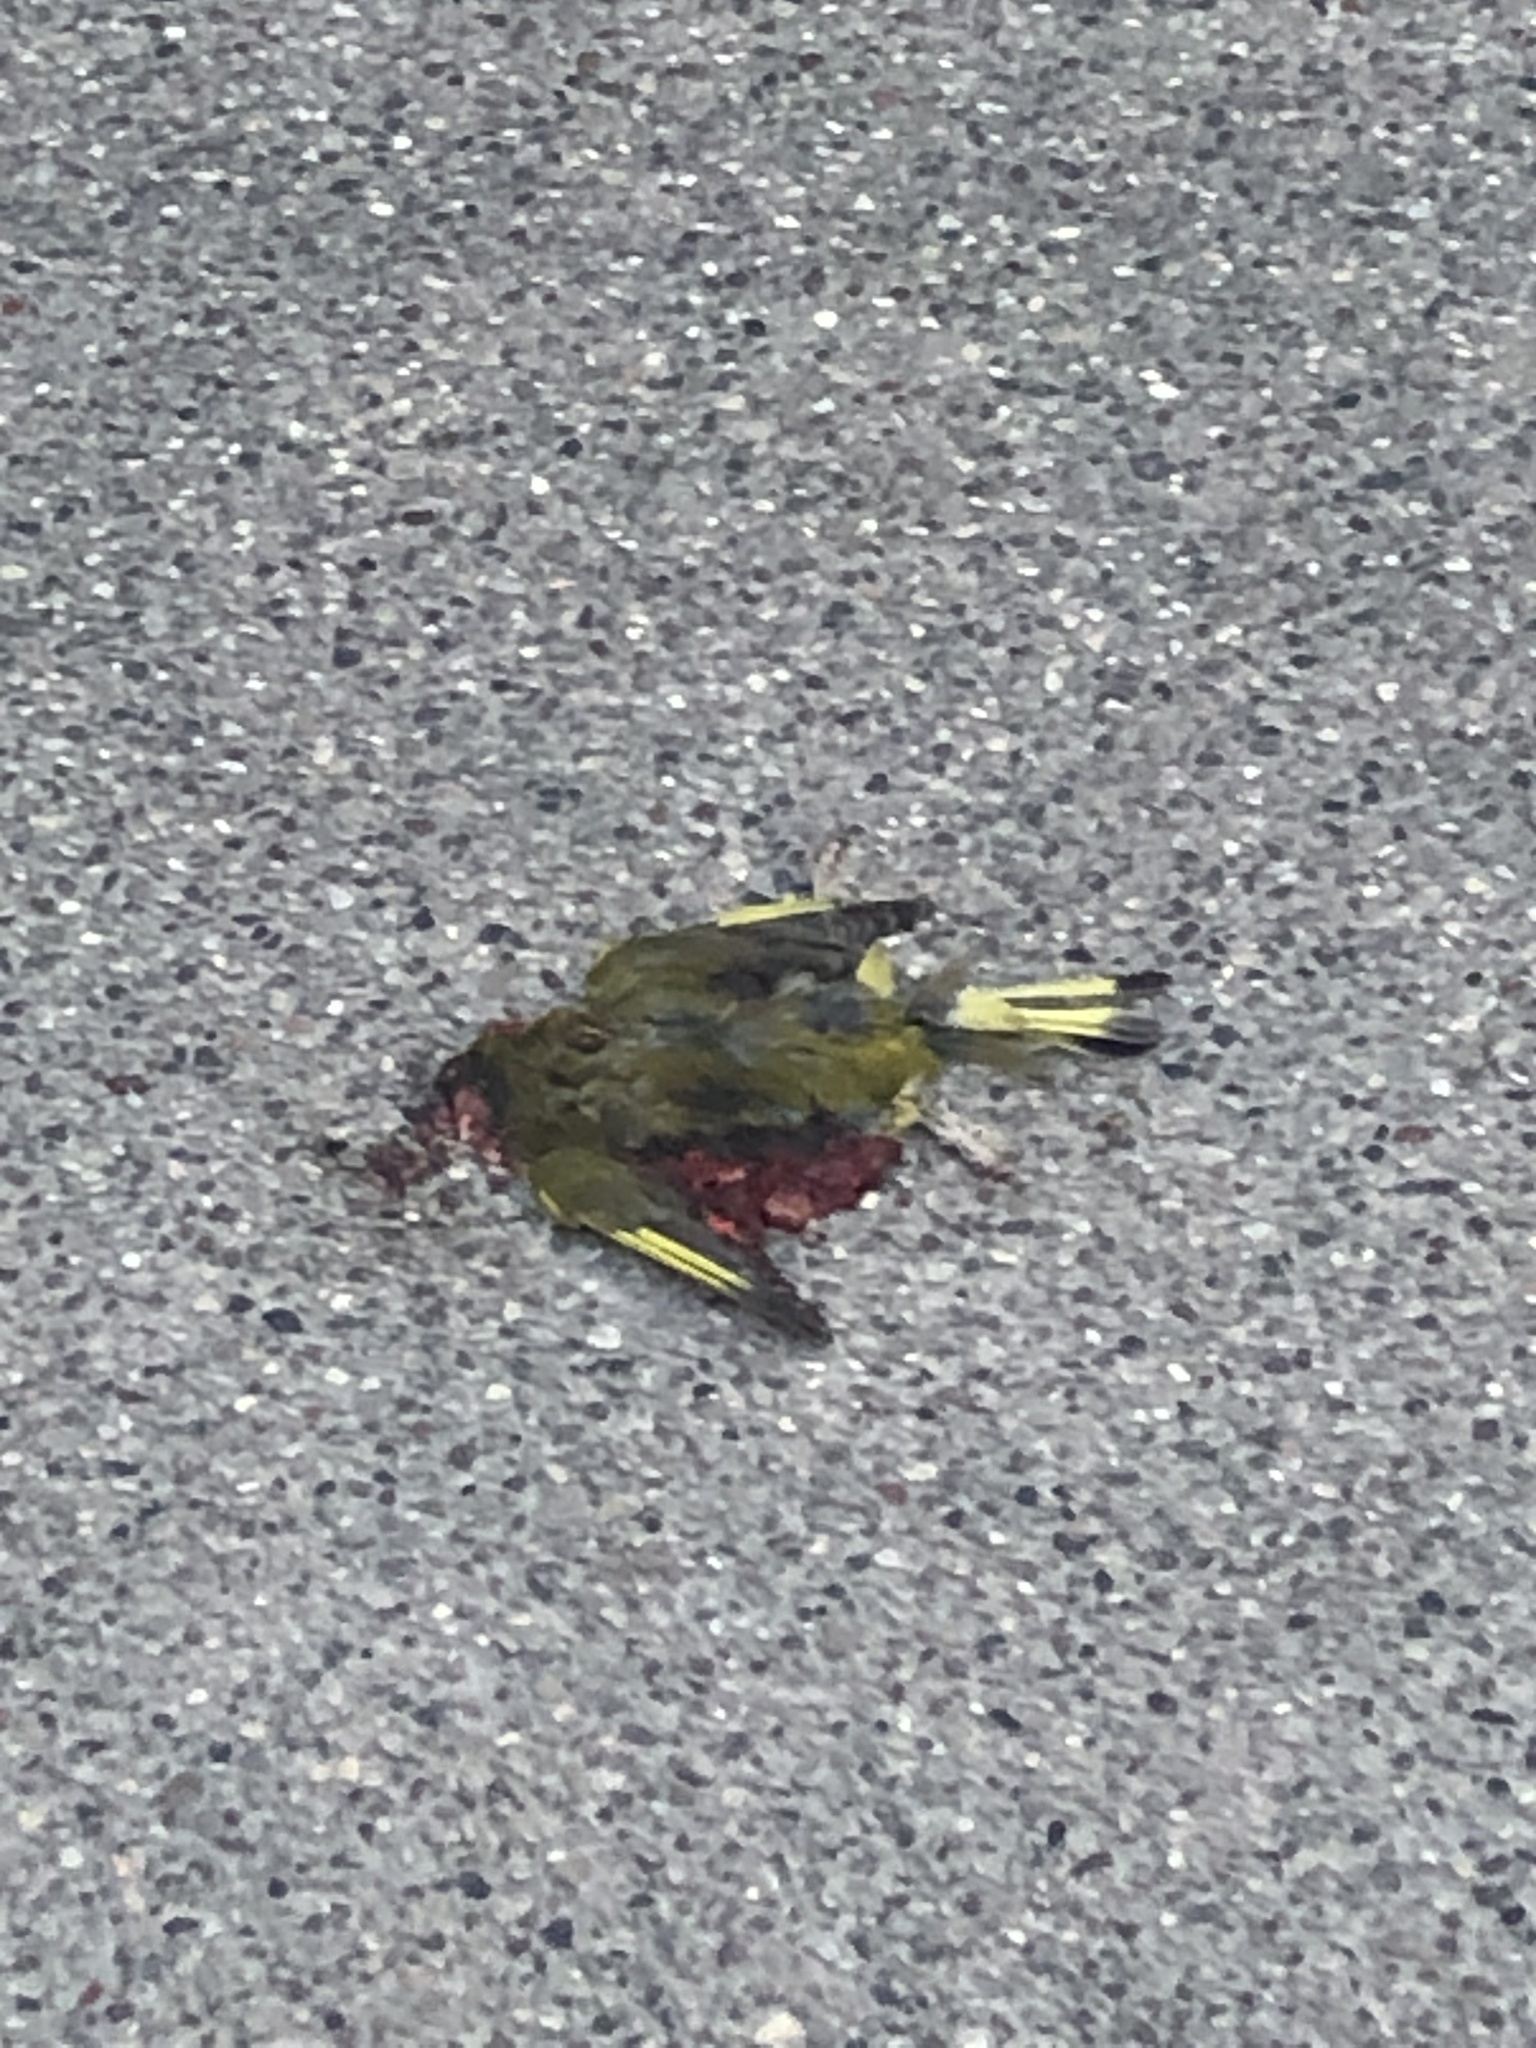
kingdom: Plantae
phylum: Tracheophyta
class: Liliopsida
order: Poales
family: Poaceae
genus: Chloris
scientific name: Chloris chloris
